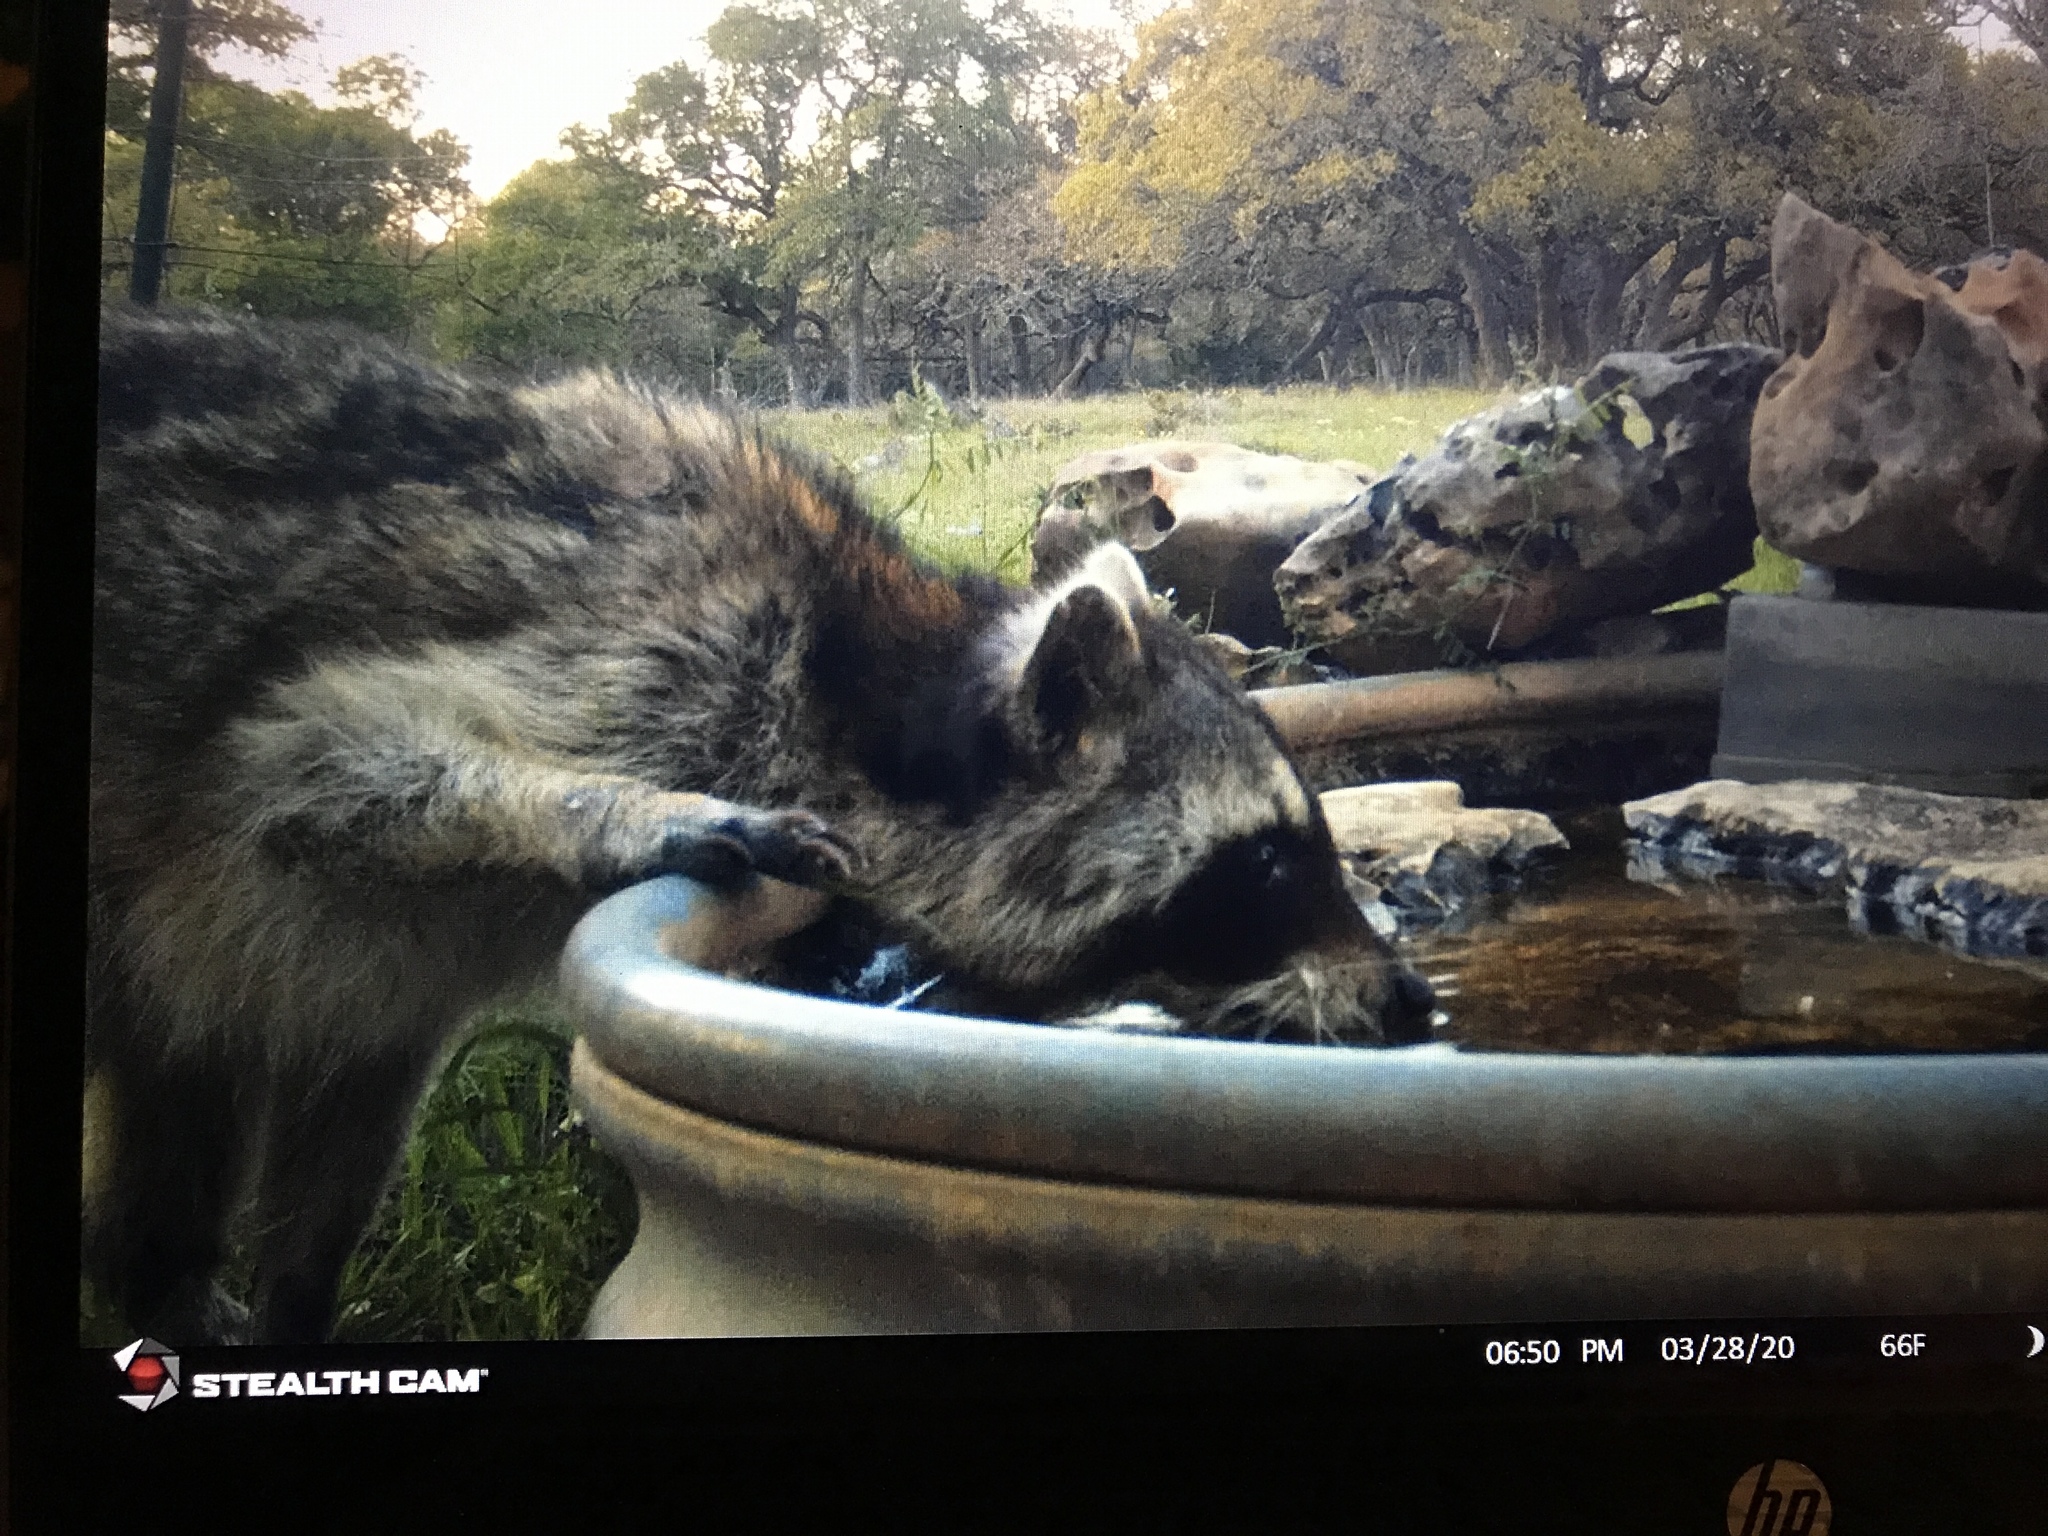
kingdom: Animalia
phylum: Chordata
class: Mammalia
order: Carnivora
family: Procyonidae
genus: Procyon
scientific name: Procyon lotor
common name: Raccoon
